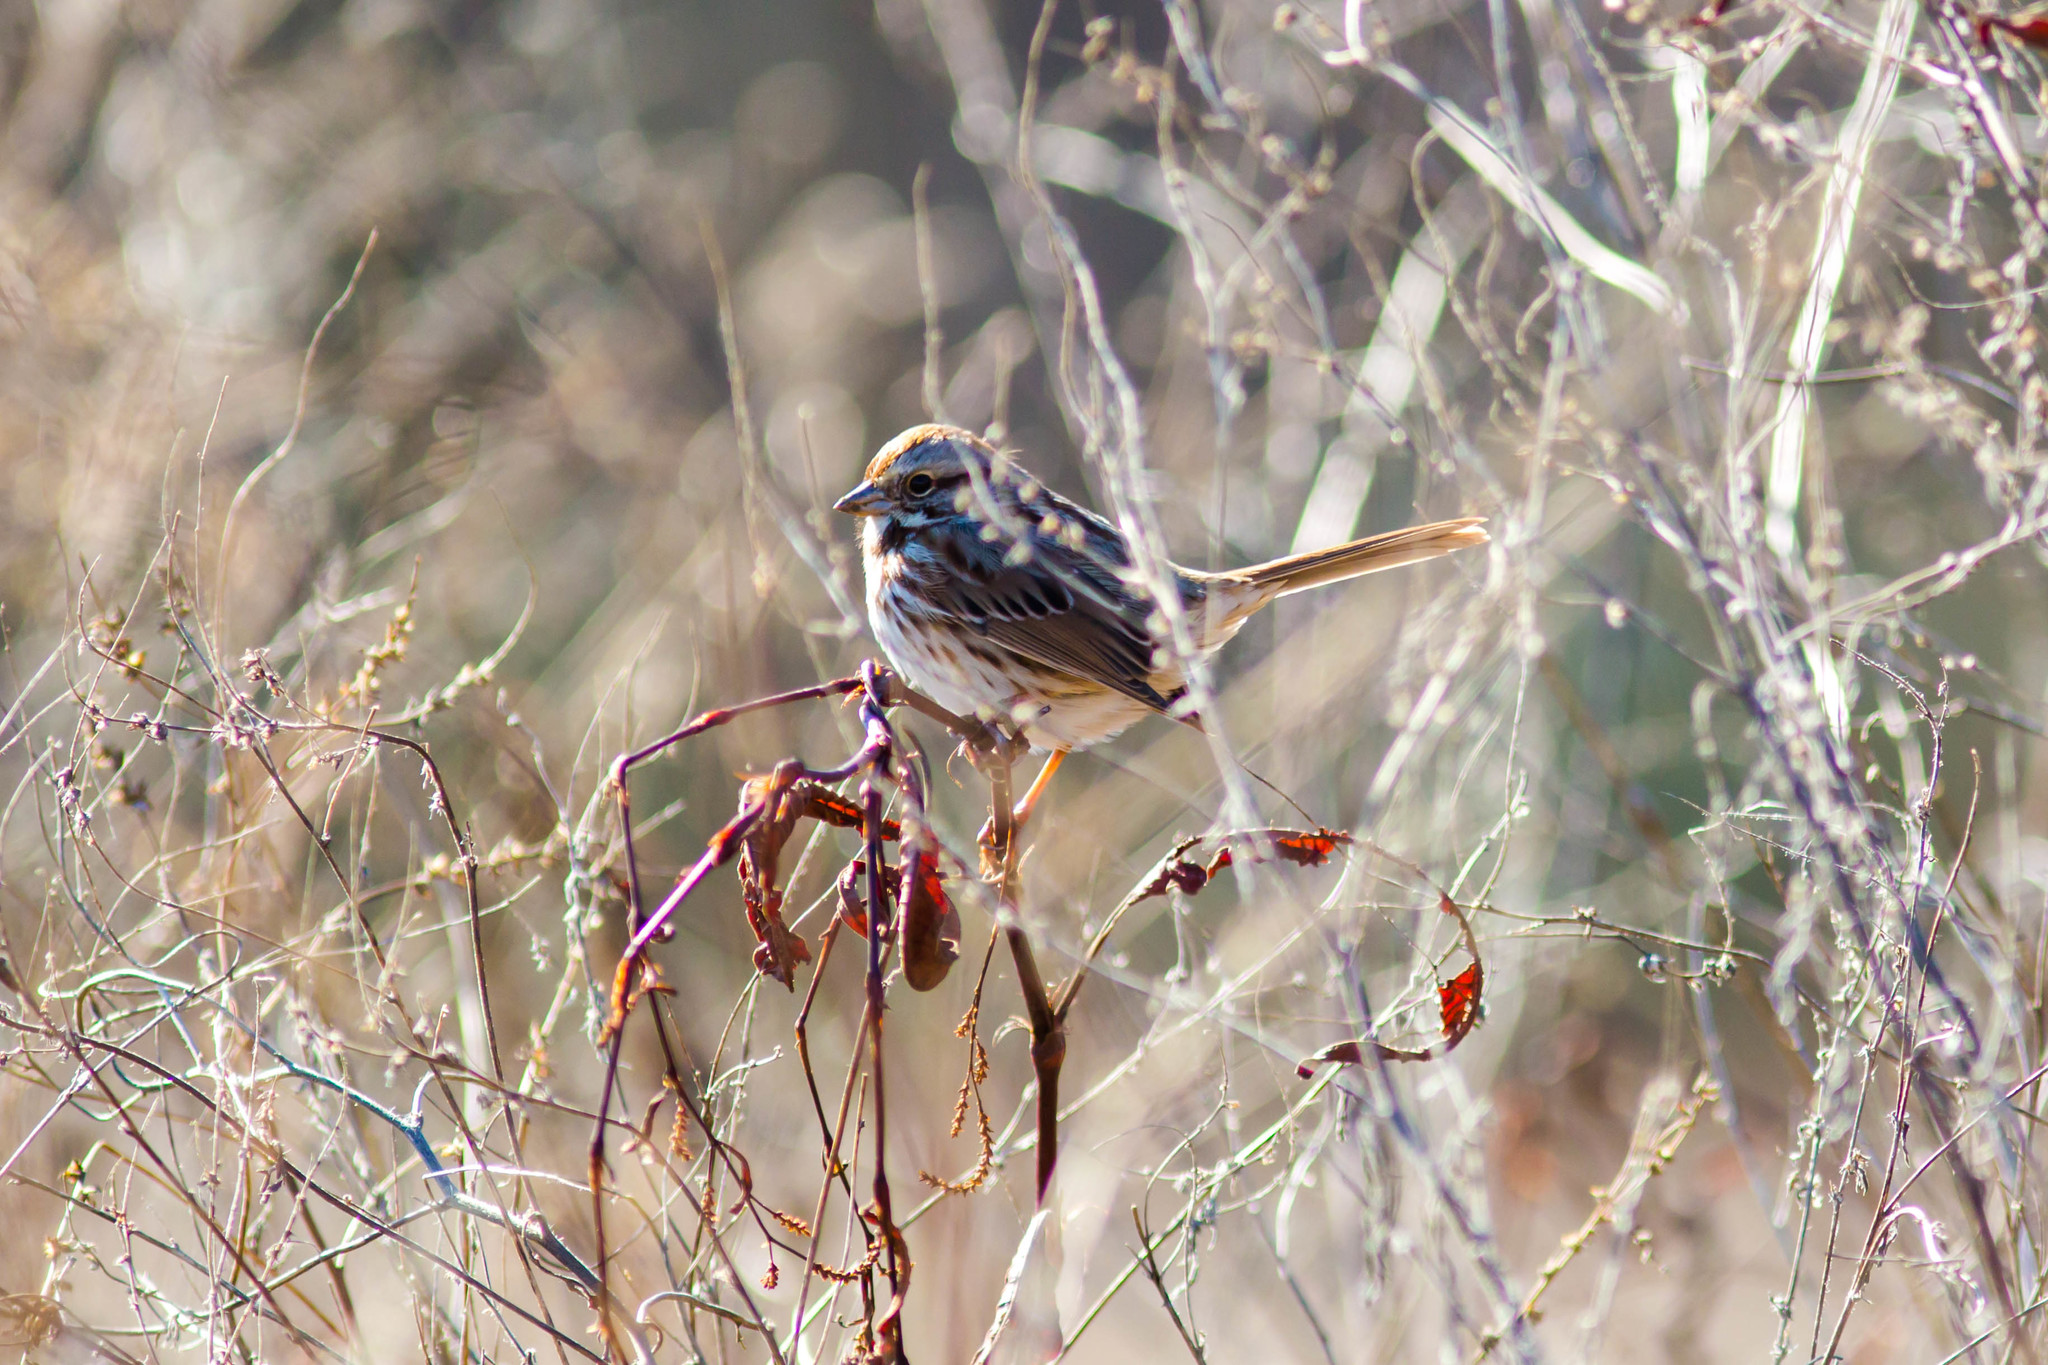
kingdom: Animalia
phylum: Chordata
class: Aves
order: Passeriformes
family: Passerellidae
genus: Melospiza
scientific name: Melospiza melodia
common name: Song sparrow
